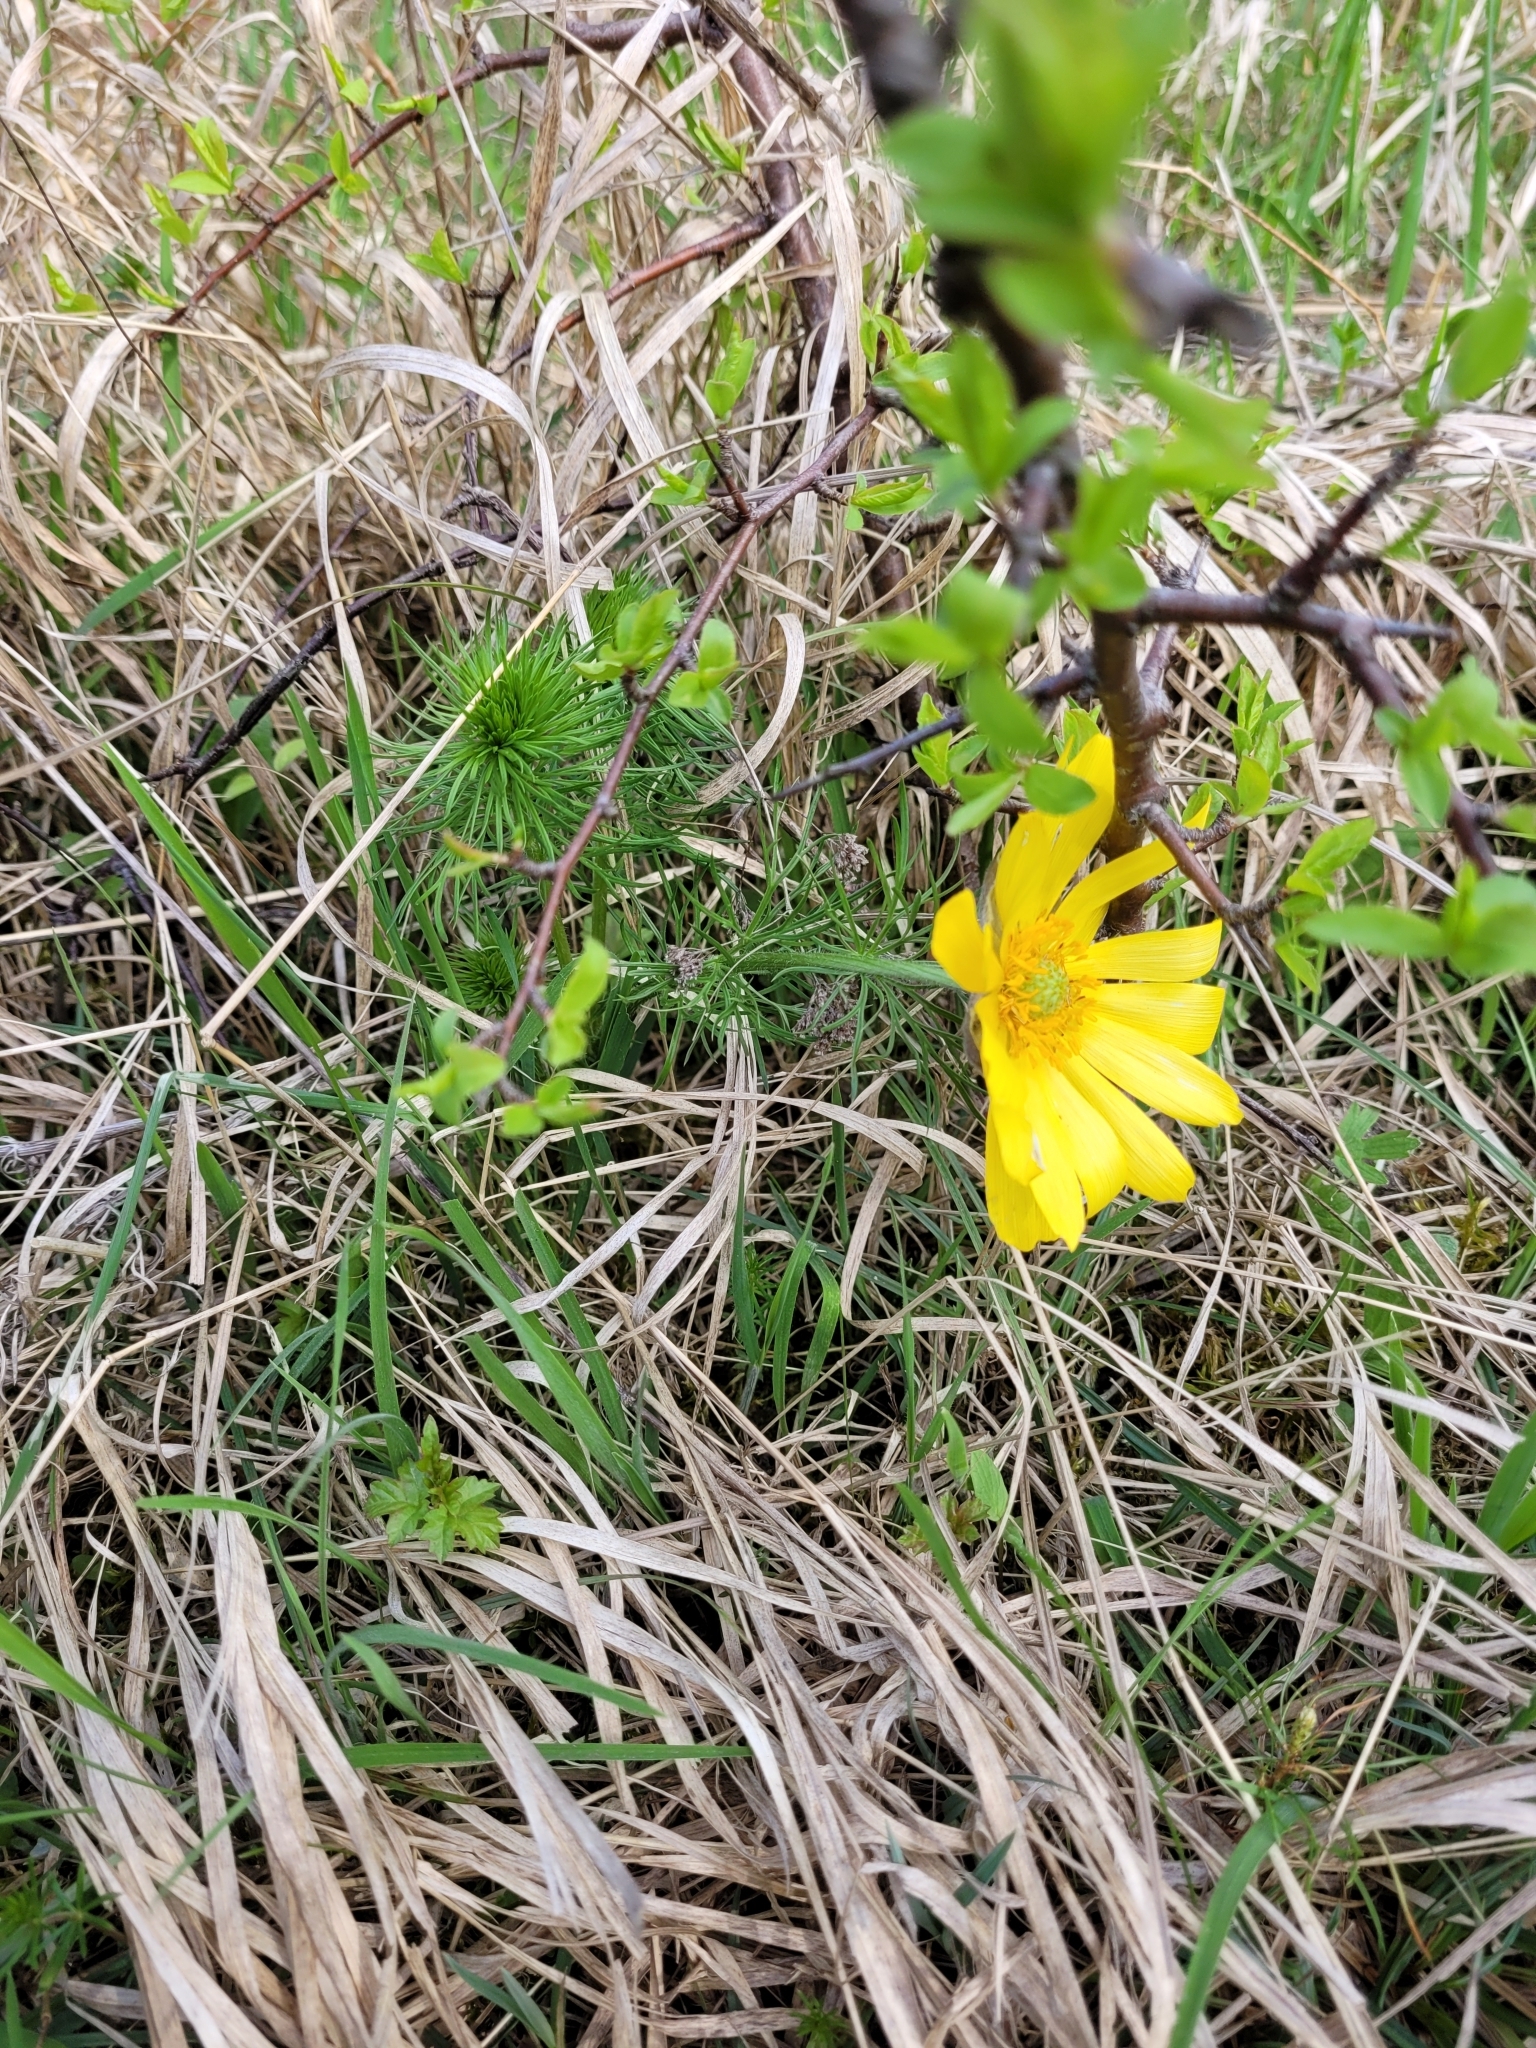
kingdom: Plantae
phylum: Tracheophyta
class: Magnoliopsida
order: Ranunculales
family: Ranunculaceae
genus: Adonis
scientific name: Adonis vernalis
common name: Yellow pheasants-eye
